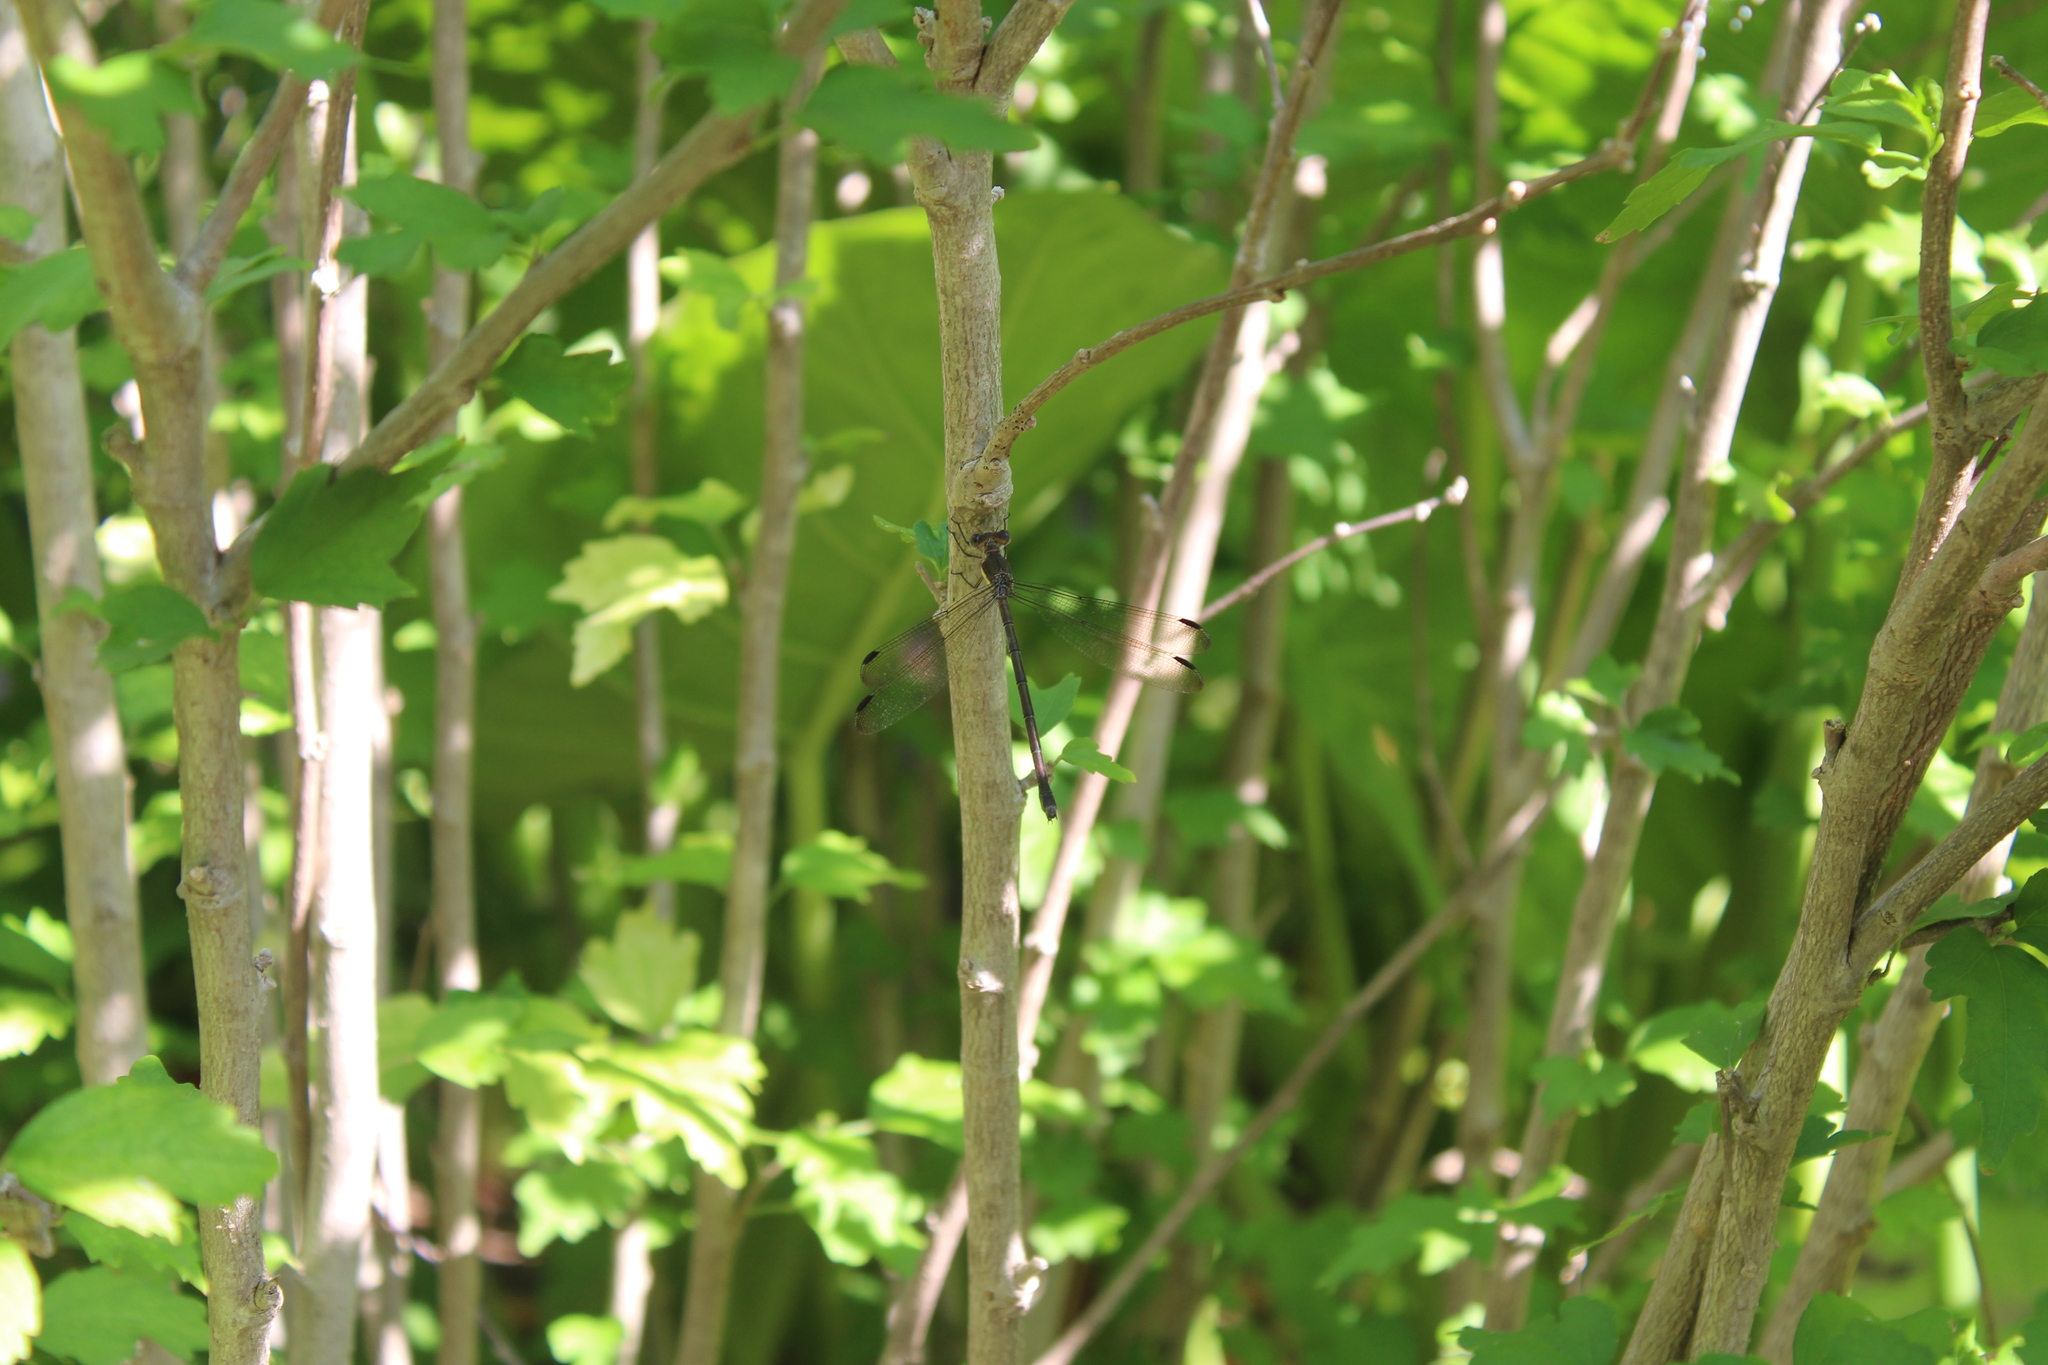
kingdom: Animalia
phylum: Arthropoda
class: Insecta
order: Odonata
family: Lestidae
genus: Archilestes
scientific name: Archilestes grandis
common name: Great spreadwing
